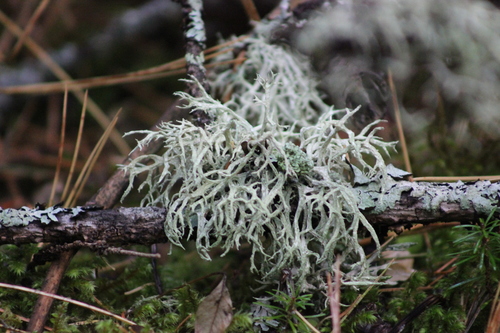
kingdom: Fungi
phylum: Ascomycota
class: Lecanoromycetes
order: Lecanorales
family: Parmeliaceae
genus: Evernia
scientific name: Evernia mesomorpha
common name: Boreal oak moss lichen
